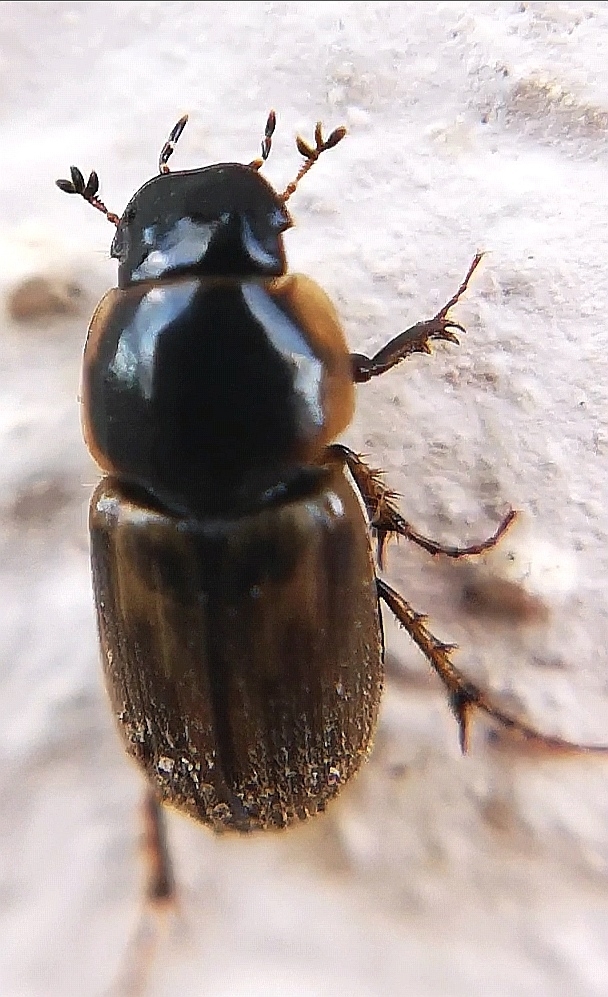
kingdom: Animalia
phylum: Arthropoda
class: Insecta
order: Coleoptera
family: Scarabaeidae
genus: Melinopterus
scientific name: Melinopterus prodromus
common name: Spring small dung beetle
